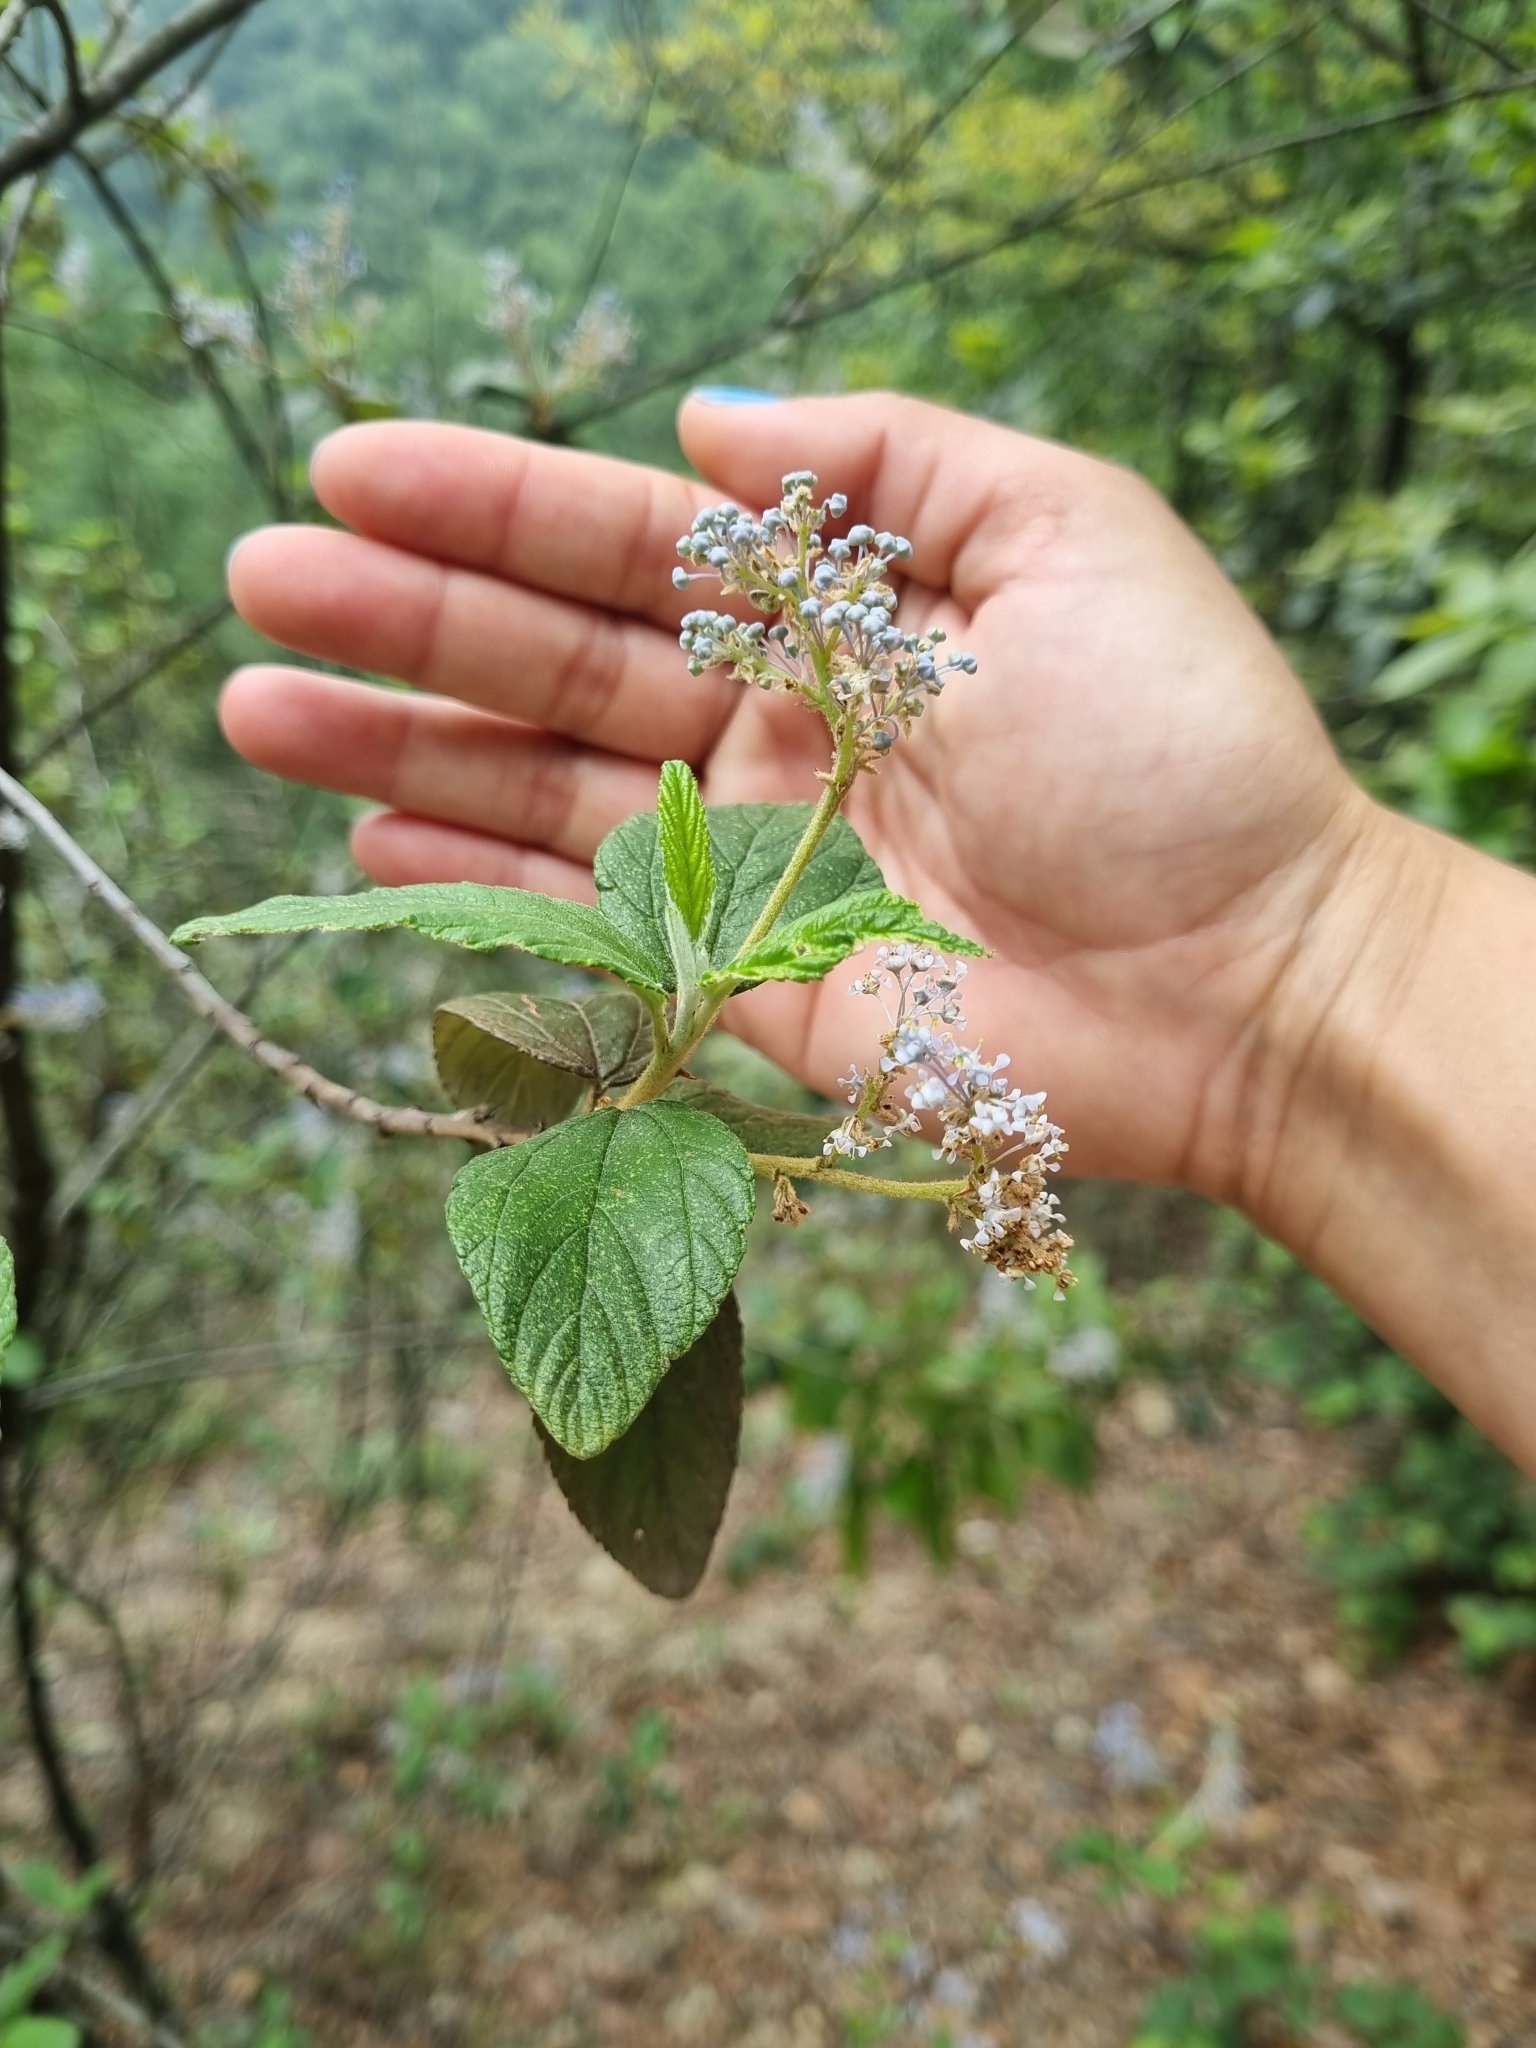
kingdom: Plantae
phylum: Tracheophyta
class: Magnoliopsida
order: Rosales
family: Rhamnaceae
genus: Ceanothus
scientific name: Ceanothus caeruleus
